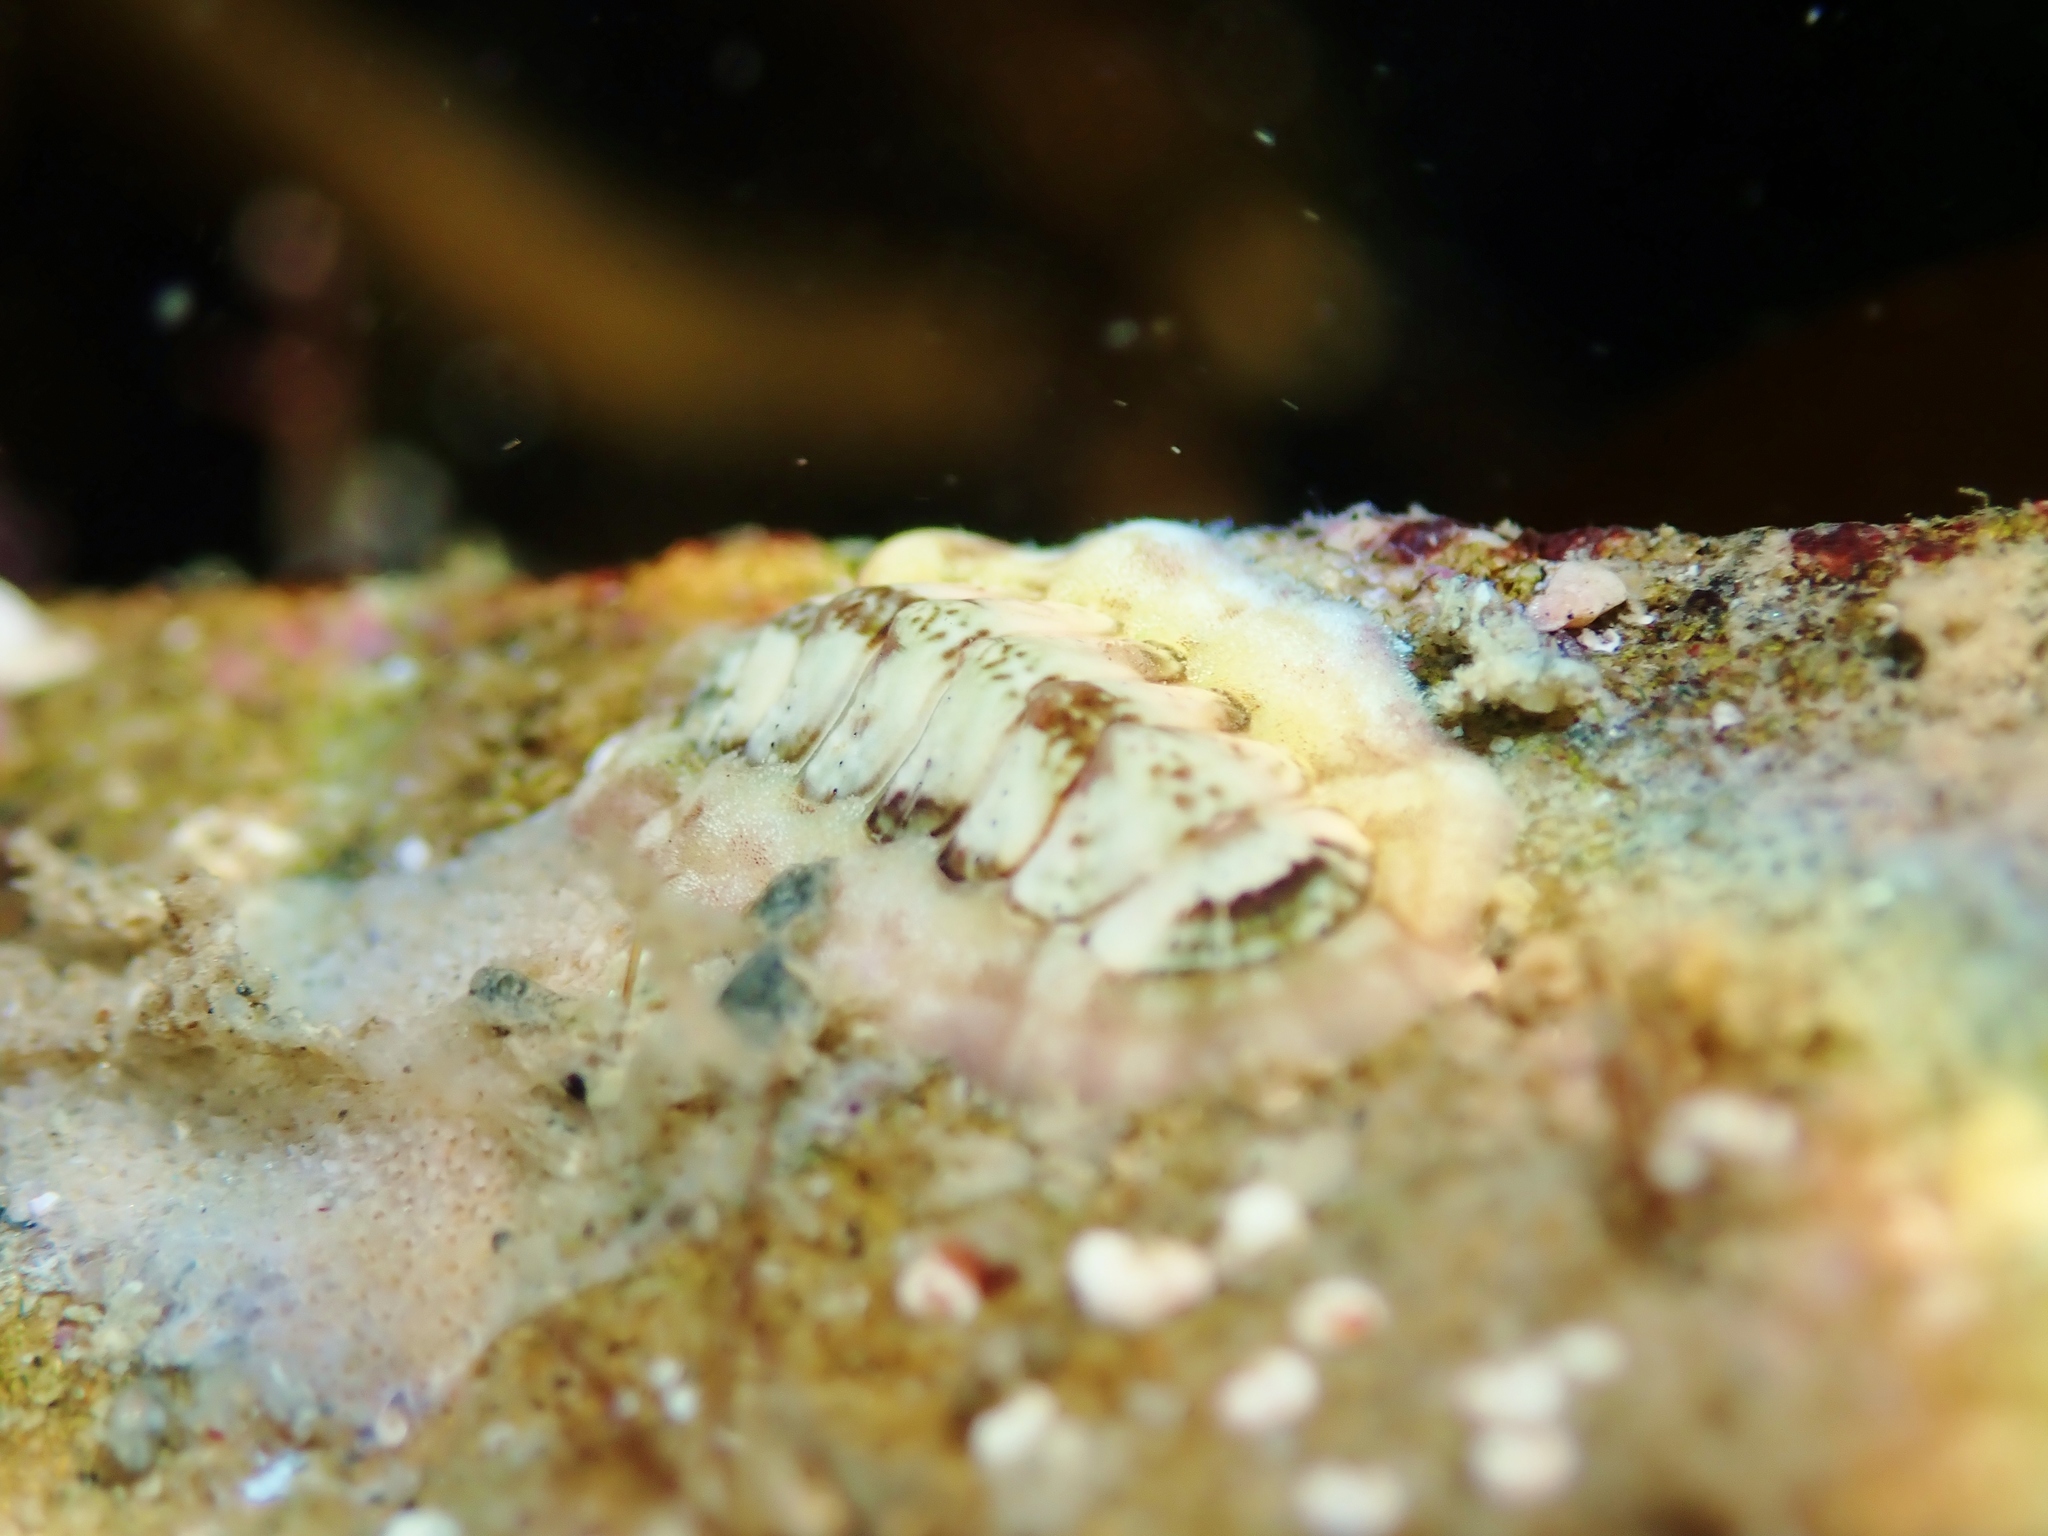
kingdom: Animalia
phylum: Mollusca
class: Polyplacophora
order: Chitonida
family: Chitonidae
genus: Onithochiton
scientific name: Onithochiton neglectus
